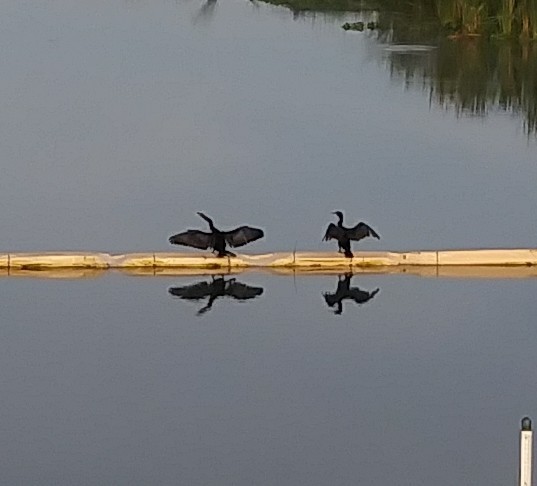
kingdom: Animalia
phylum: Chordata
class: Aves
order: Suliformes
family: Anhingidae
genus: Anhinga
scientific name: Anhinga anhinga
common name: Anhinga
